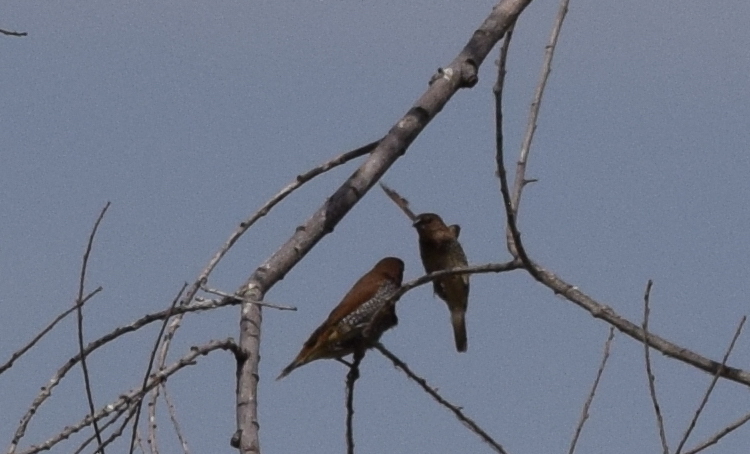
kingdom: Animalia
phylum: Chordata
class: Aves
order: Passeriformes
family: Estrildidae
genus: Lonchura
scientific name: Lonchura punctulata
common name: Scaly-breasted munia
